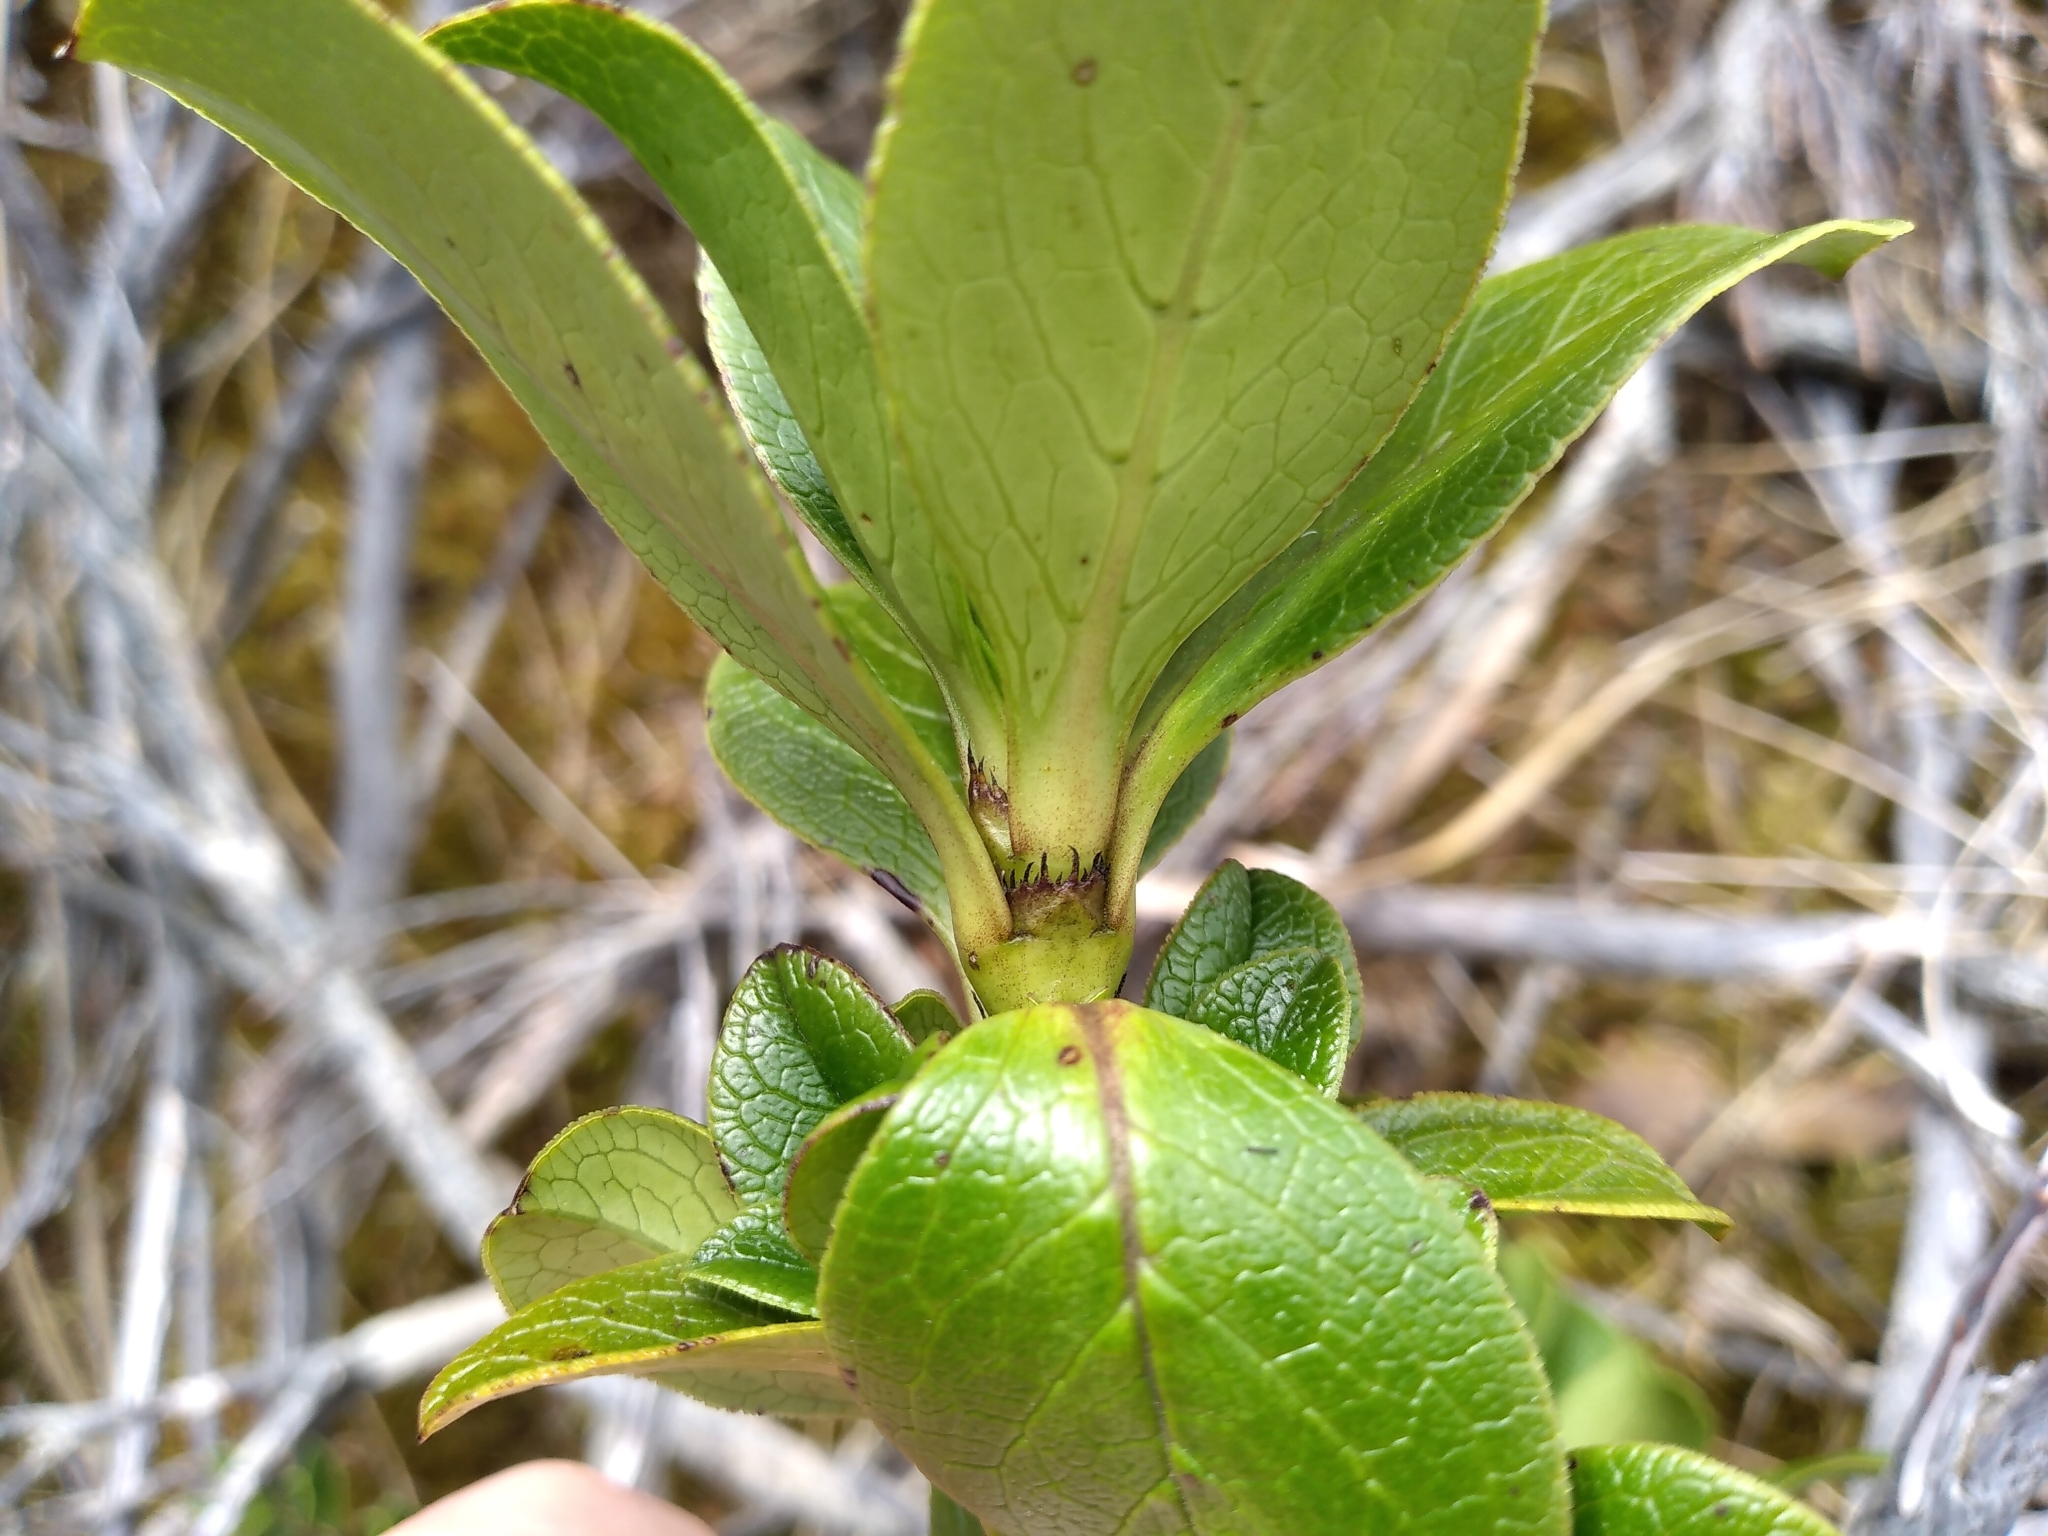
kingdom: Plantae
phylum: Tracheophyta
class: Magnoliopsida
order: Gentianales
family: Rubiaceae
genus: Coprosma
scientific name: Coprosma serrulata
